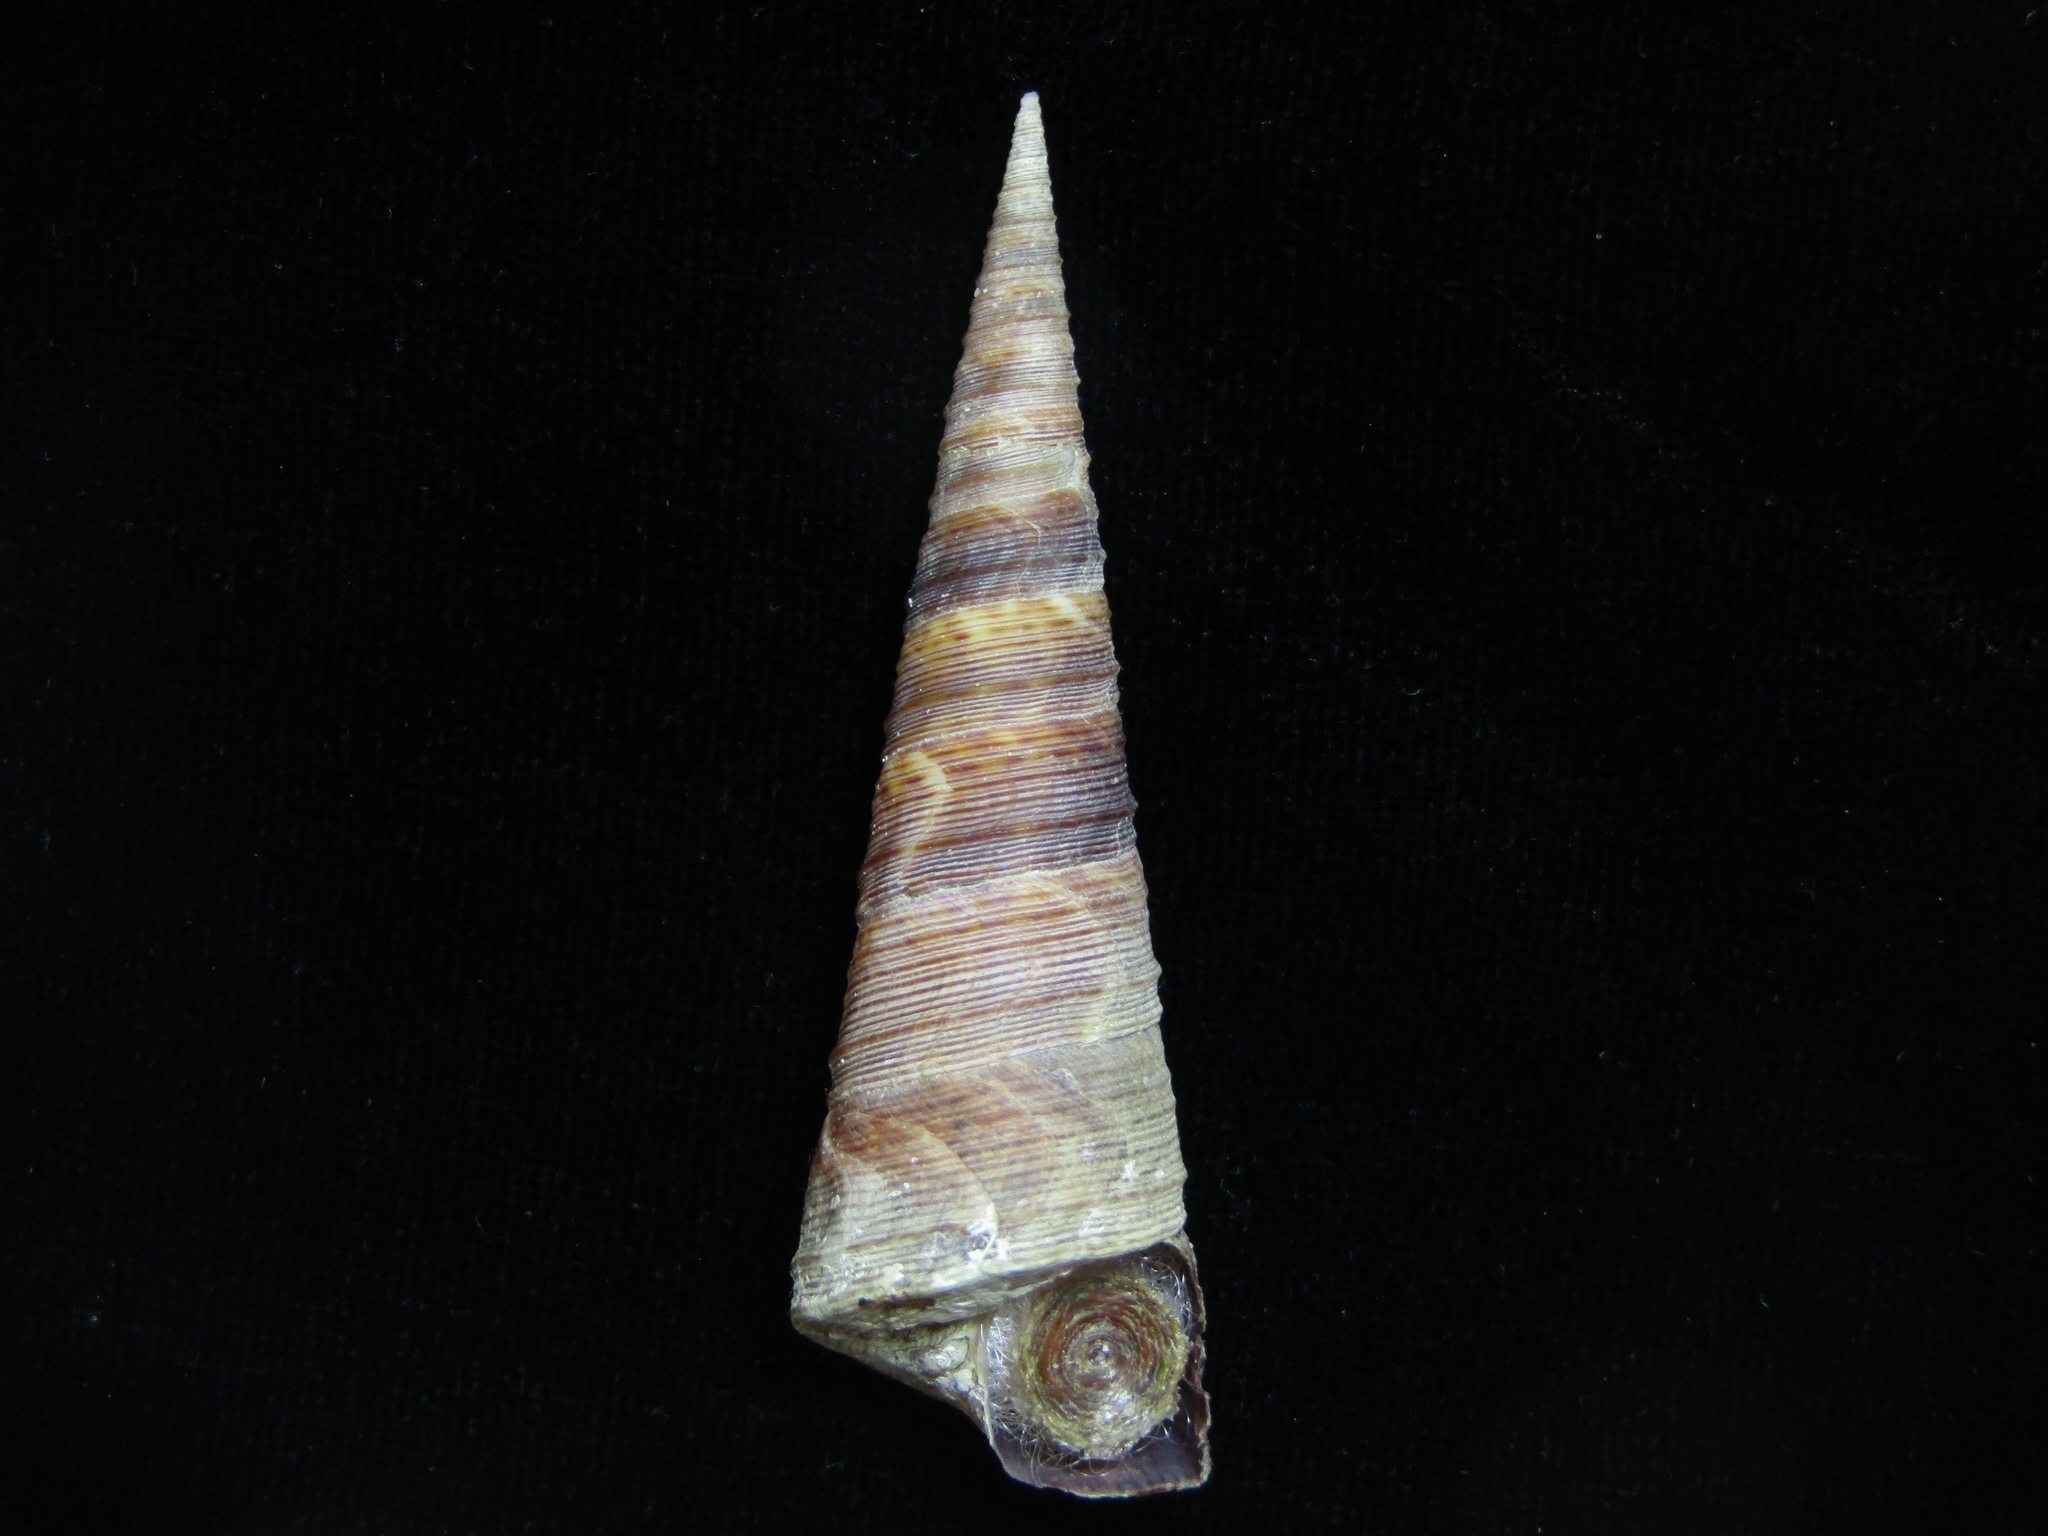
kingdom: Animalia
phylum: Mollusca
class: Gastropoda
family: Turritellidae
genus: Maoricolpus
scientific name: Maoricolpus roseus
